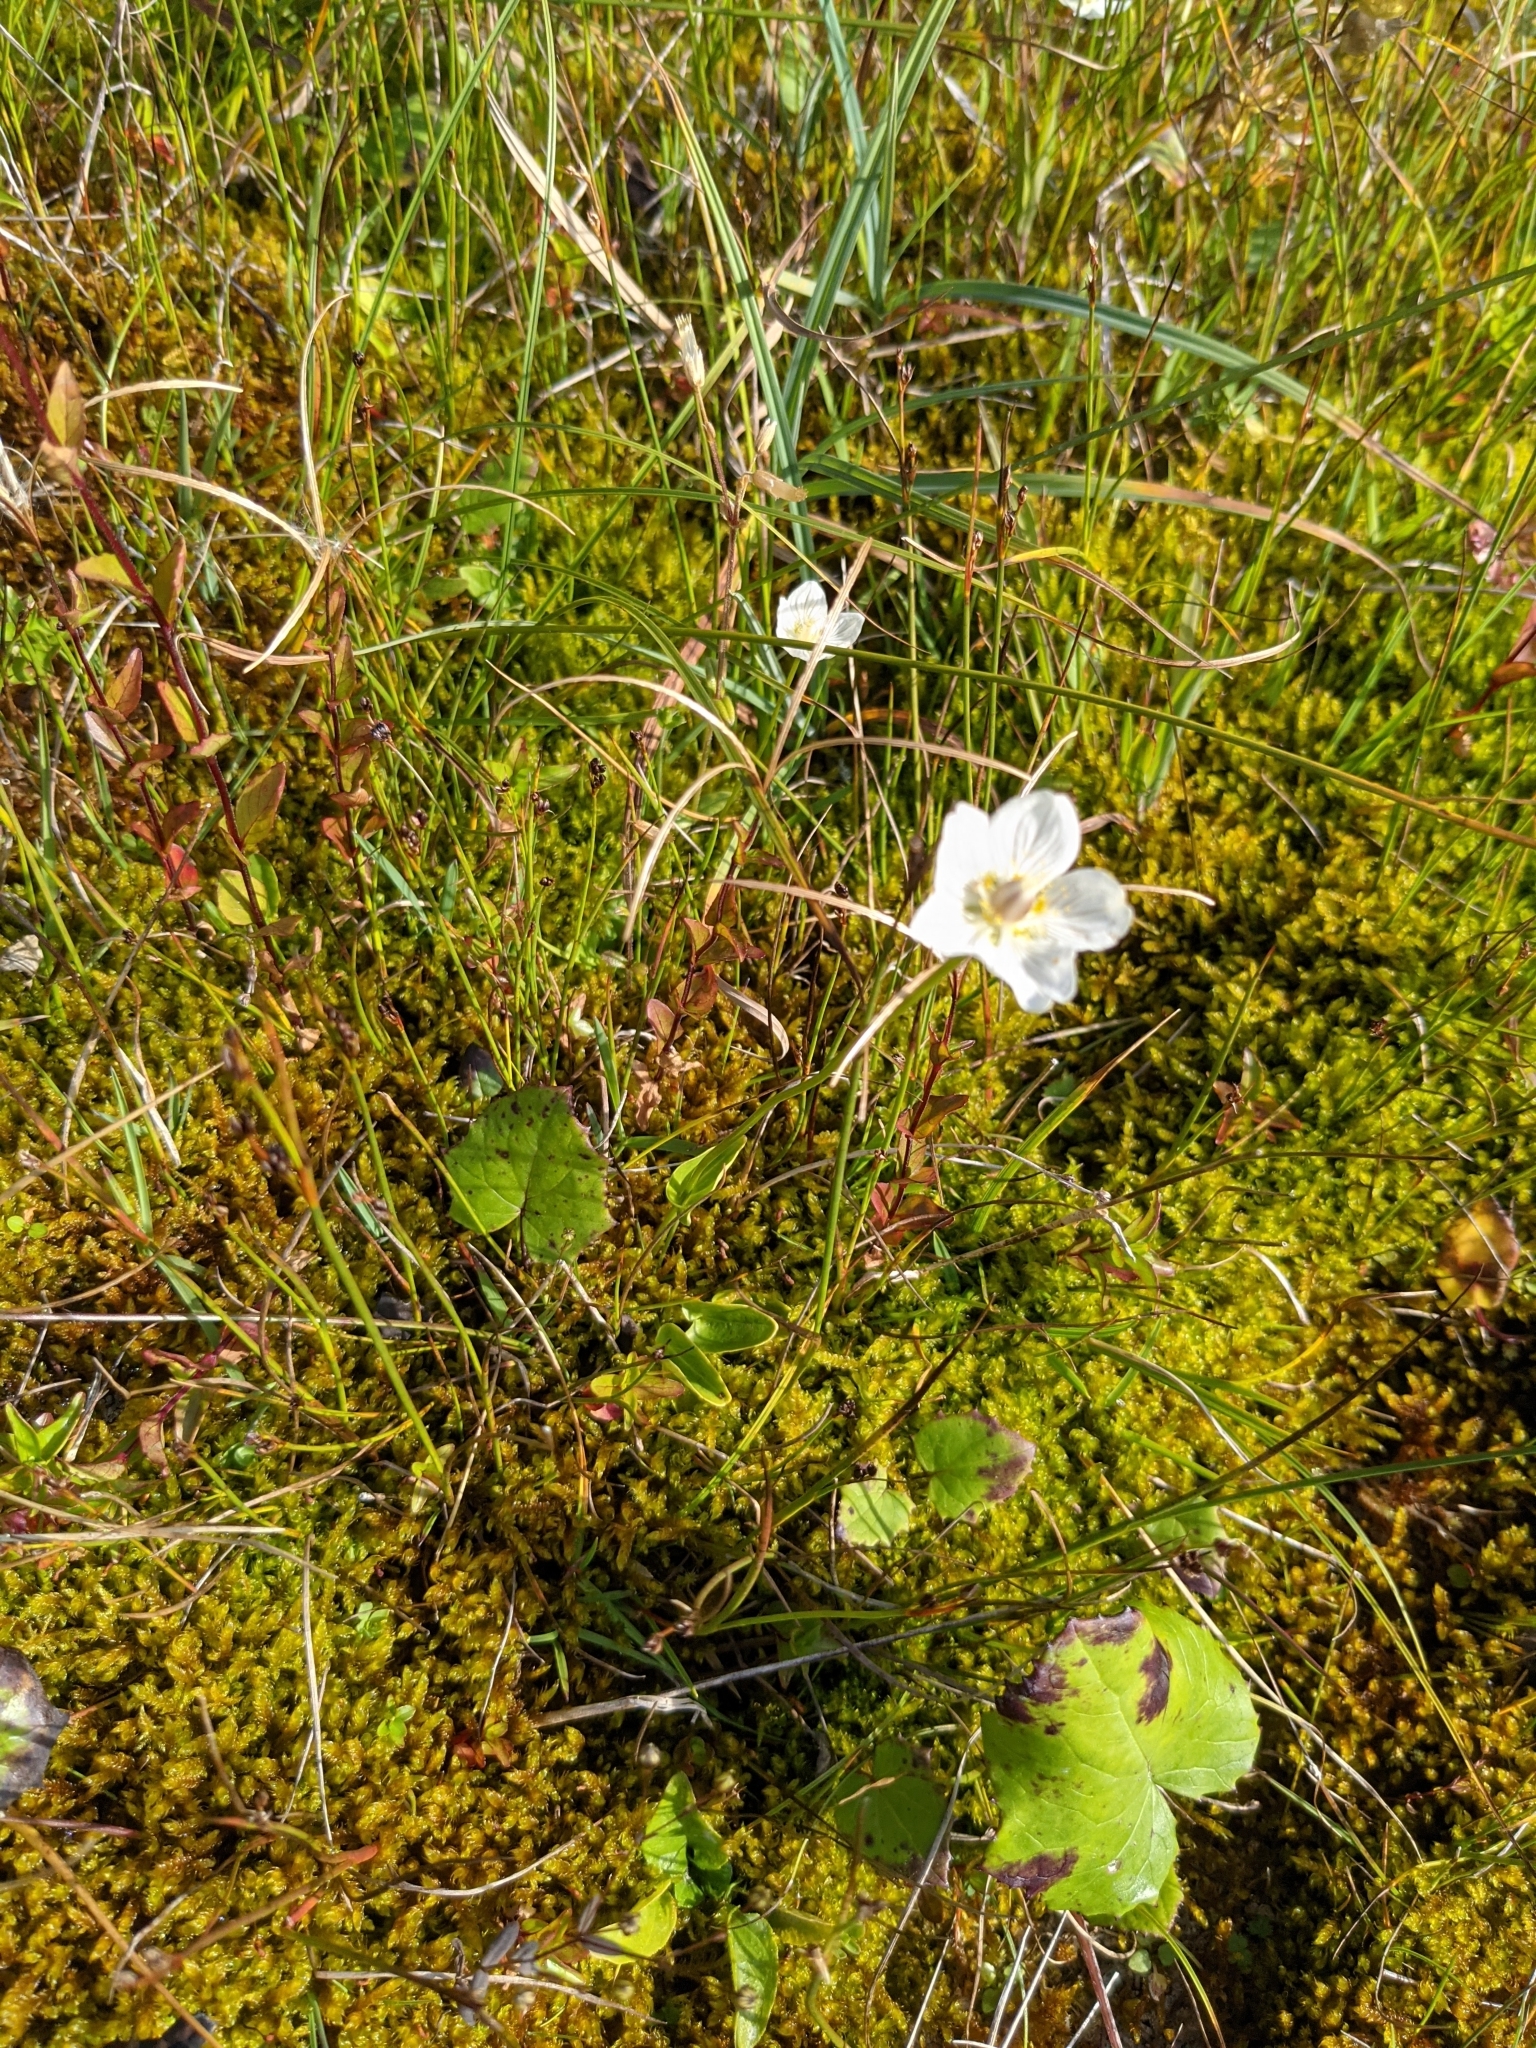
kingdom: Plantae
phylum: Tracheophyta
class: Magnoliopsida
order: Celastrales
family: Parnassiaceae
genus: Parnassia
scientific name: Parnassia palustris
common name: Grass-of-parnassus
